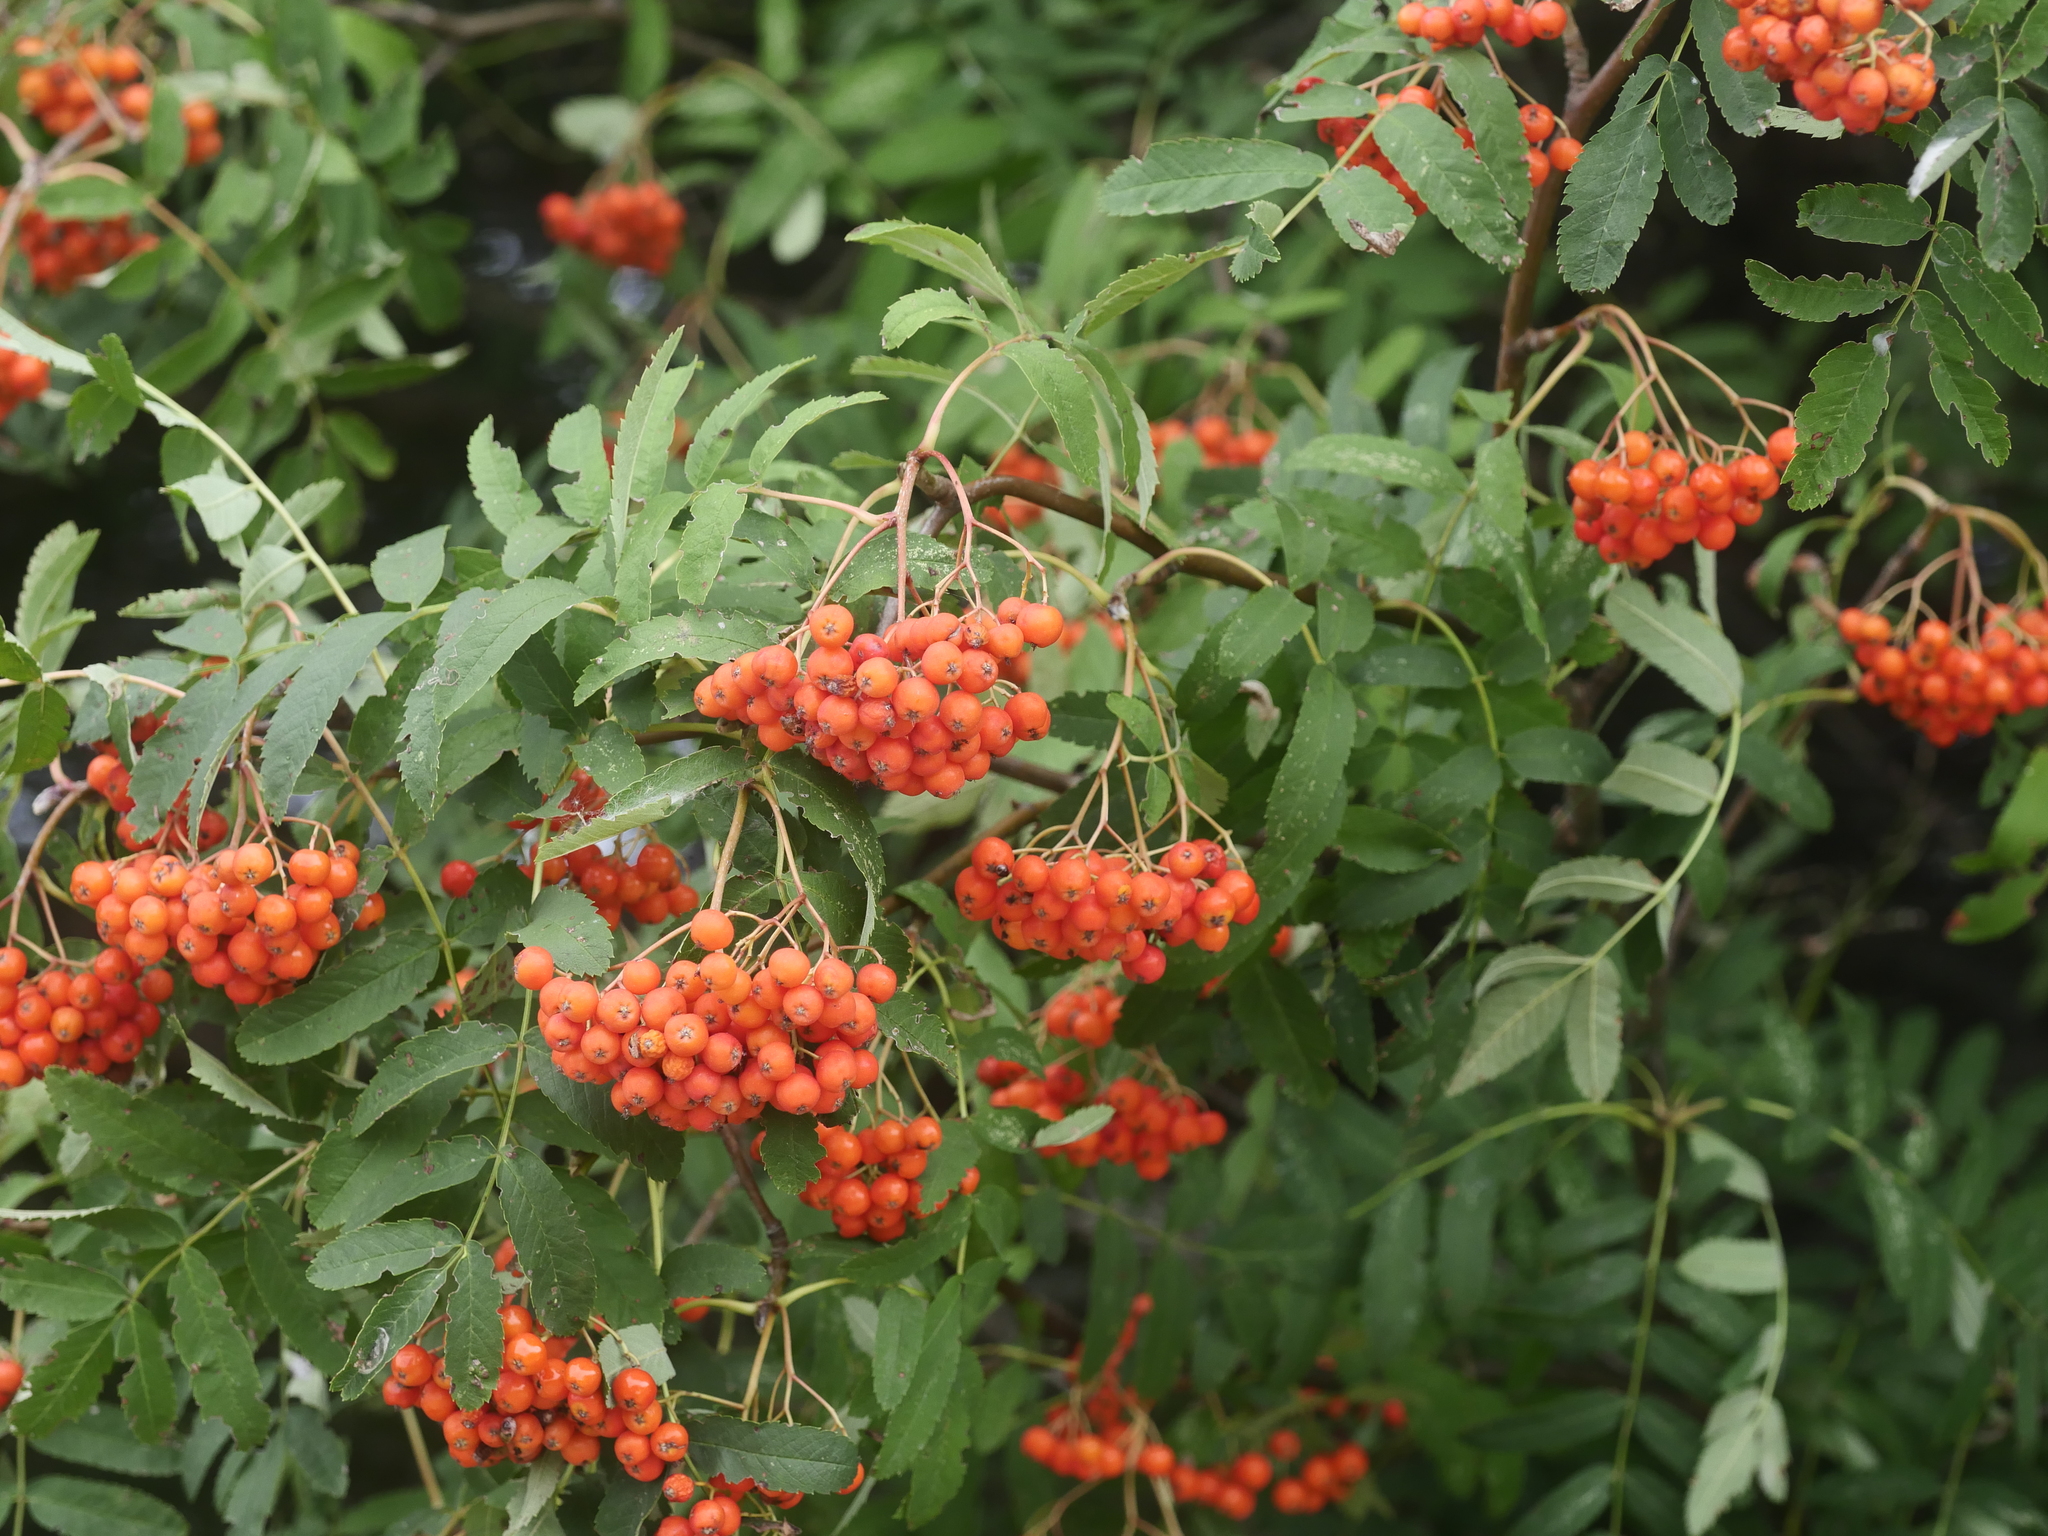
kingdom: Plantae
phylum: Tracheophyta
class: Magnoliopsida
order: Rosales
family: Rosaceae
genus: Sorbus
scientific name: Sorbus aucuparia
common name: Rowan
